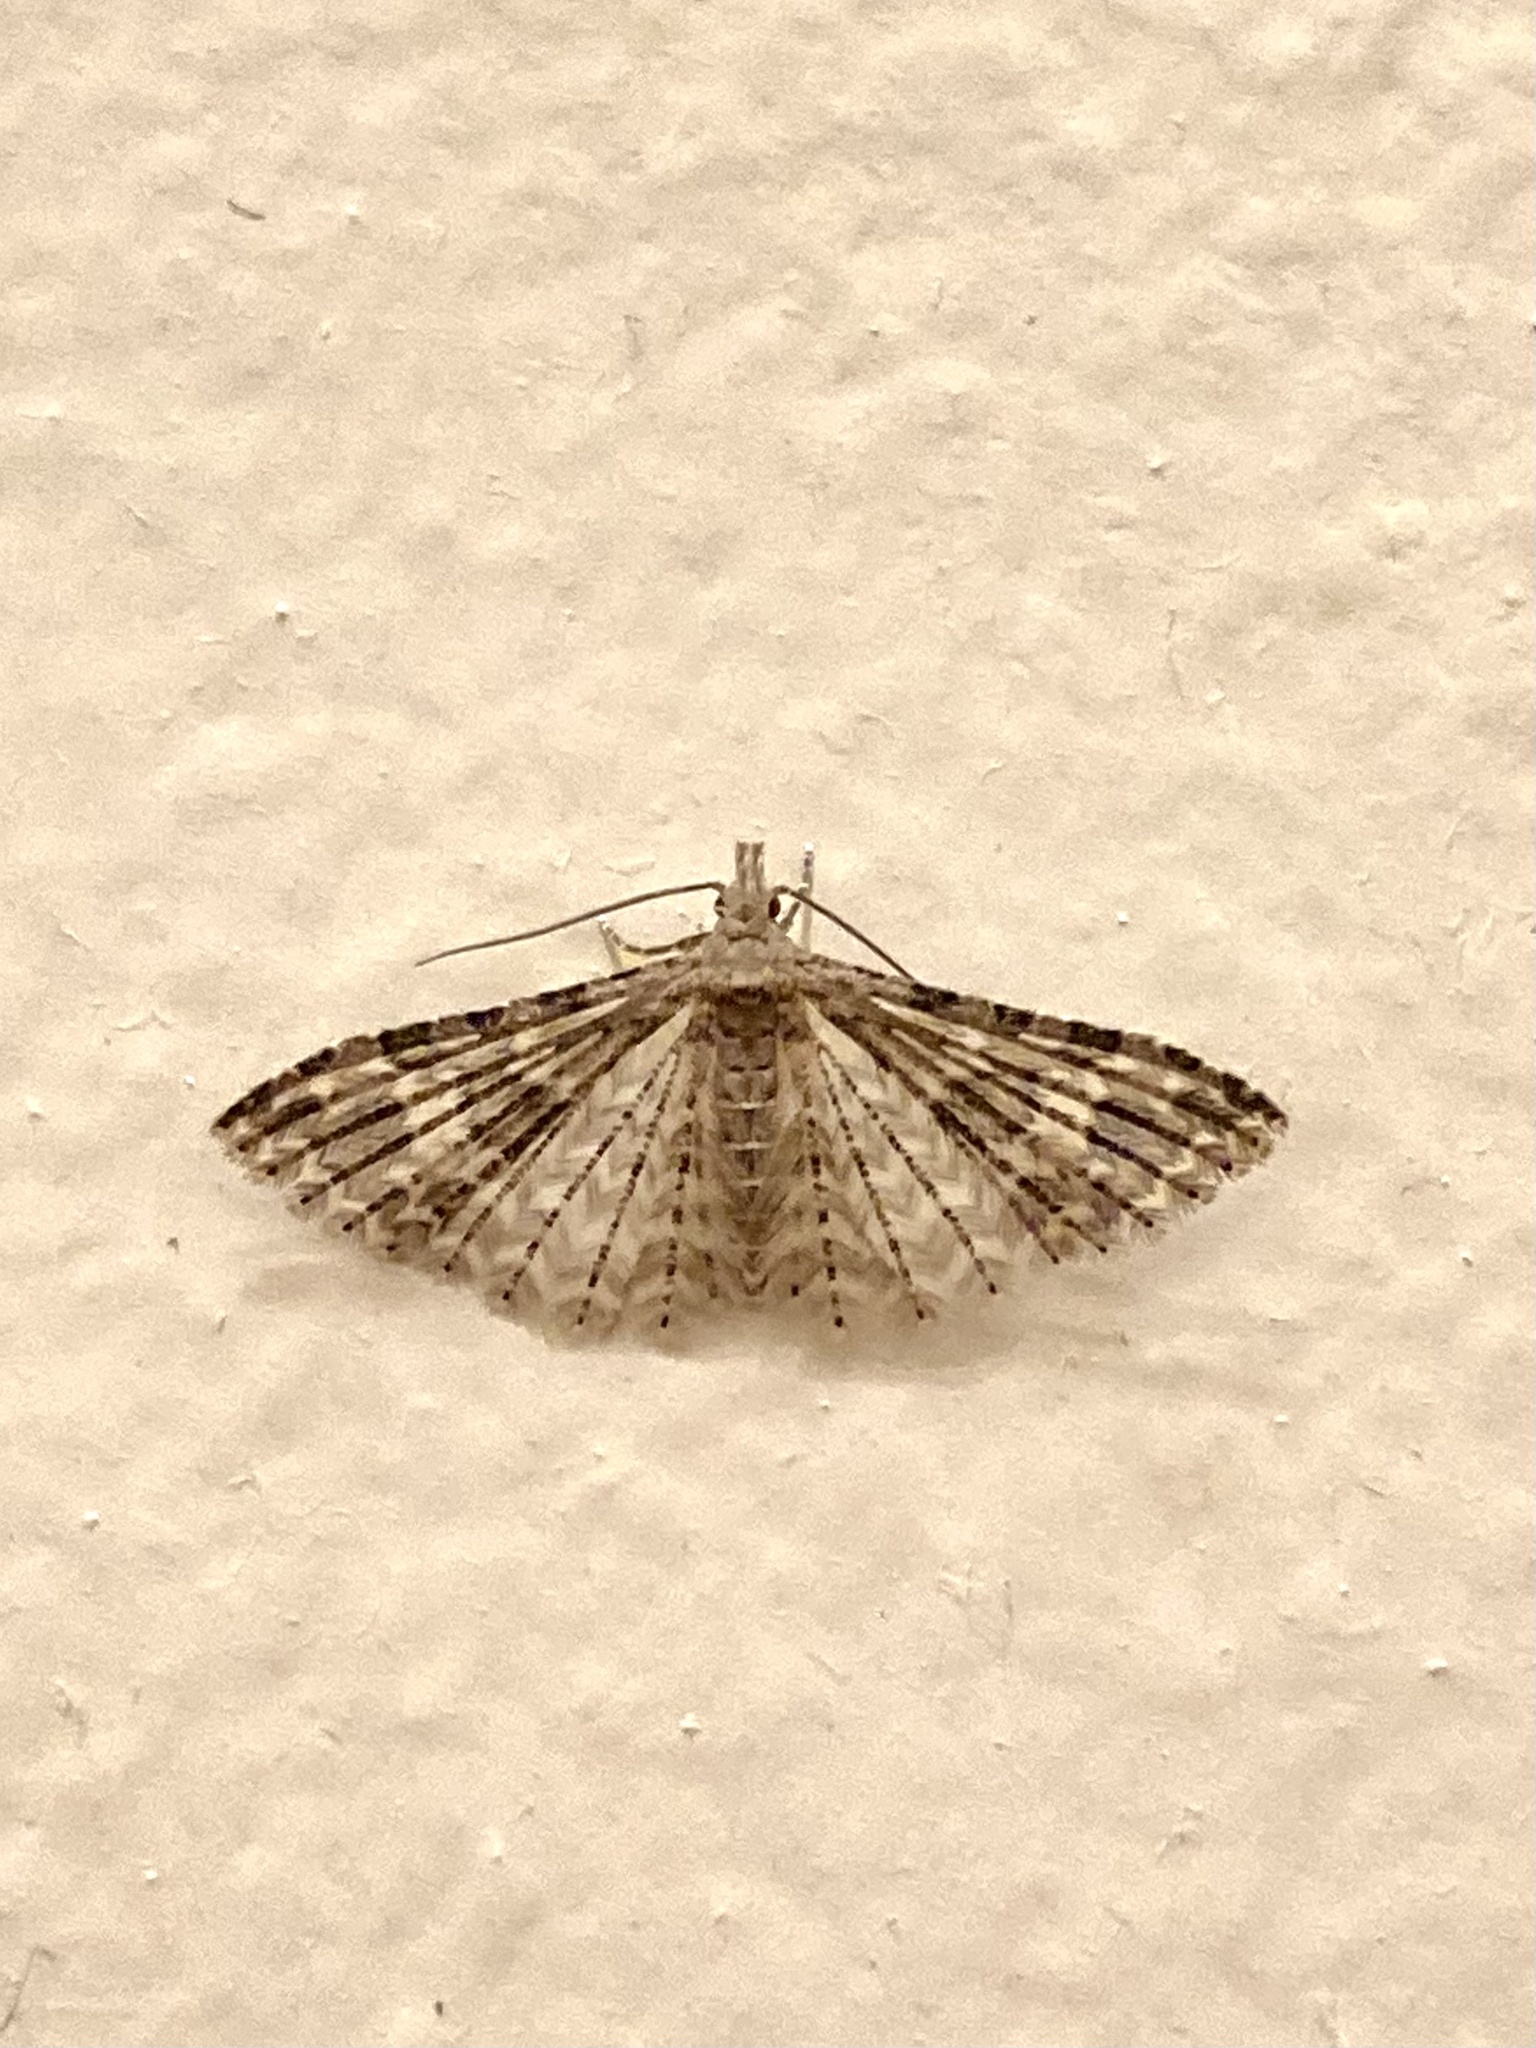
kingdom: Animalia
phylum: Arthropoda
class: Insecta
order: Lepidoptera
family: Alucitidae
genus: Alucita
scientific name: Alucita
